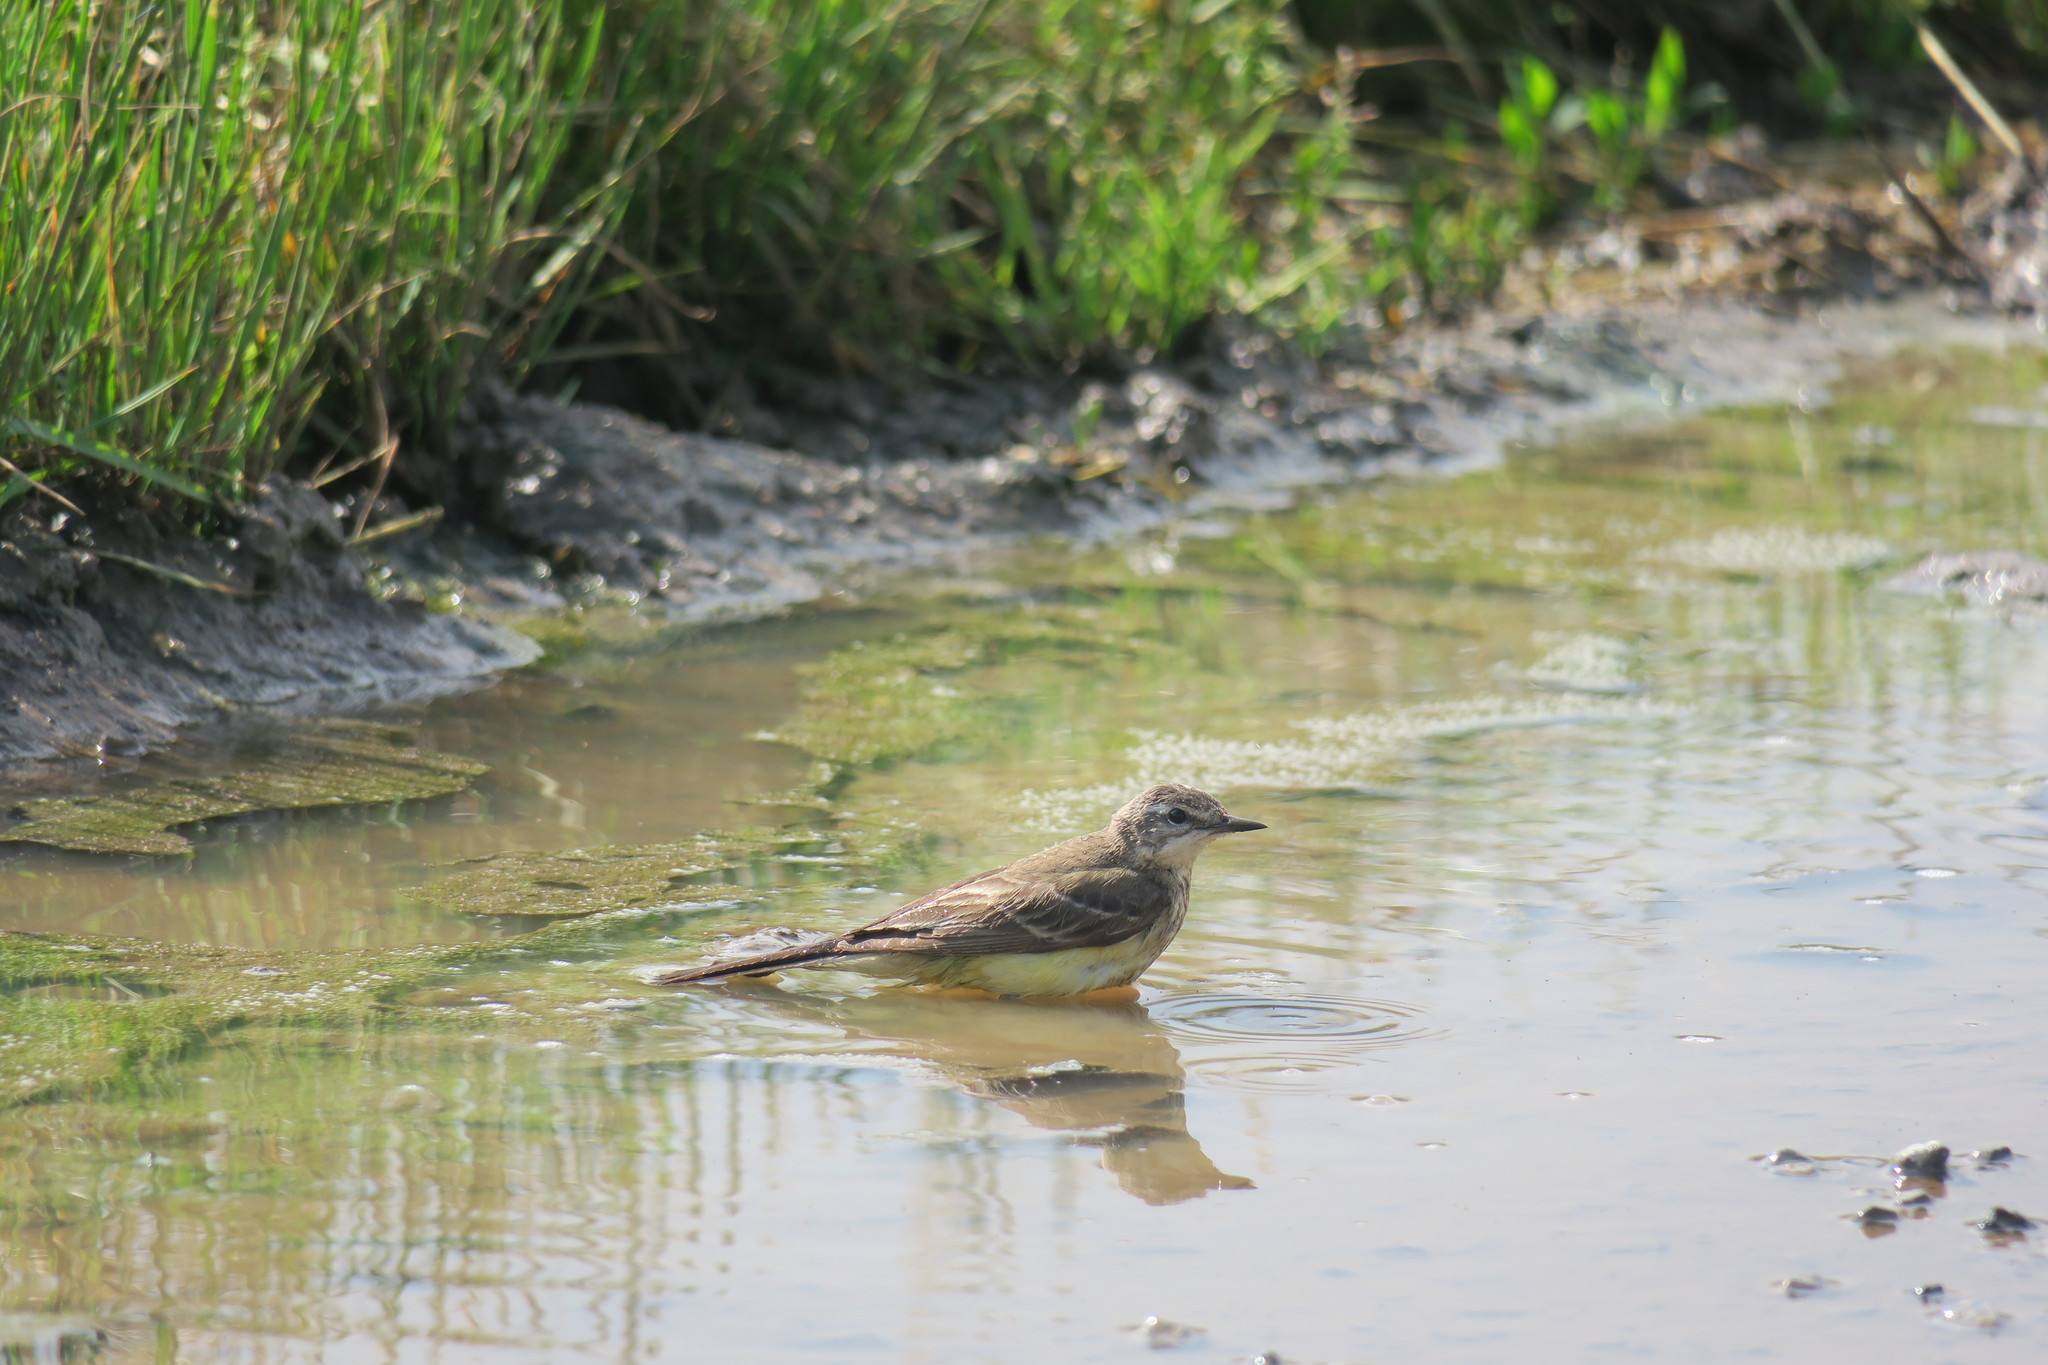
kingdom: Animalia
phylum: Chordata
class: Aves
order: Passeriformes
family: Motacillidae
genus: Motacilla
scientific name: Motacilla flava
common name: Western yellow wagtail
